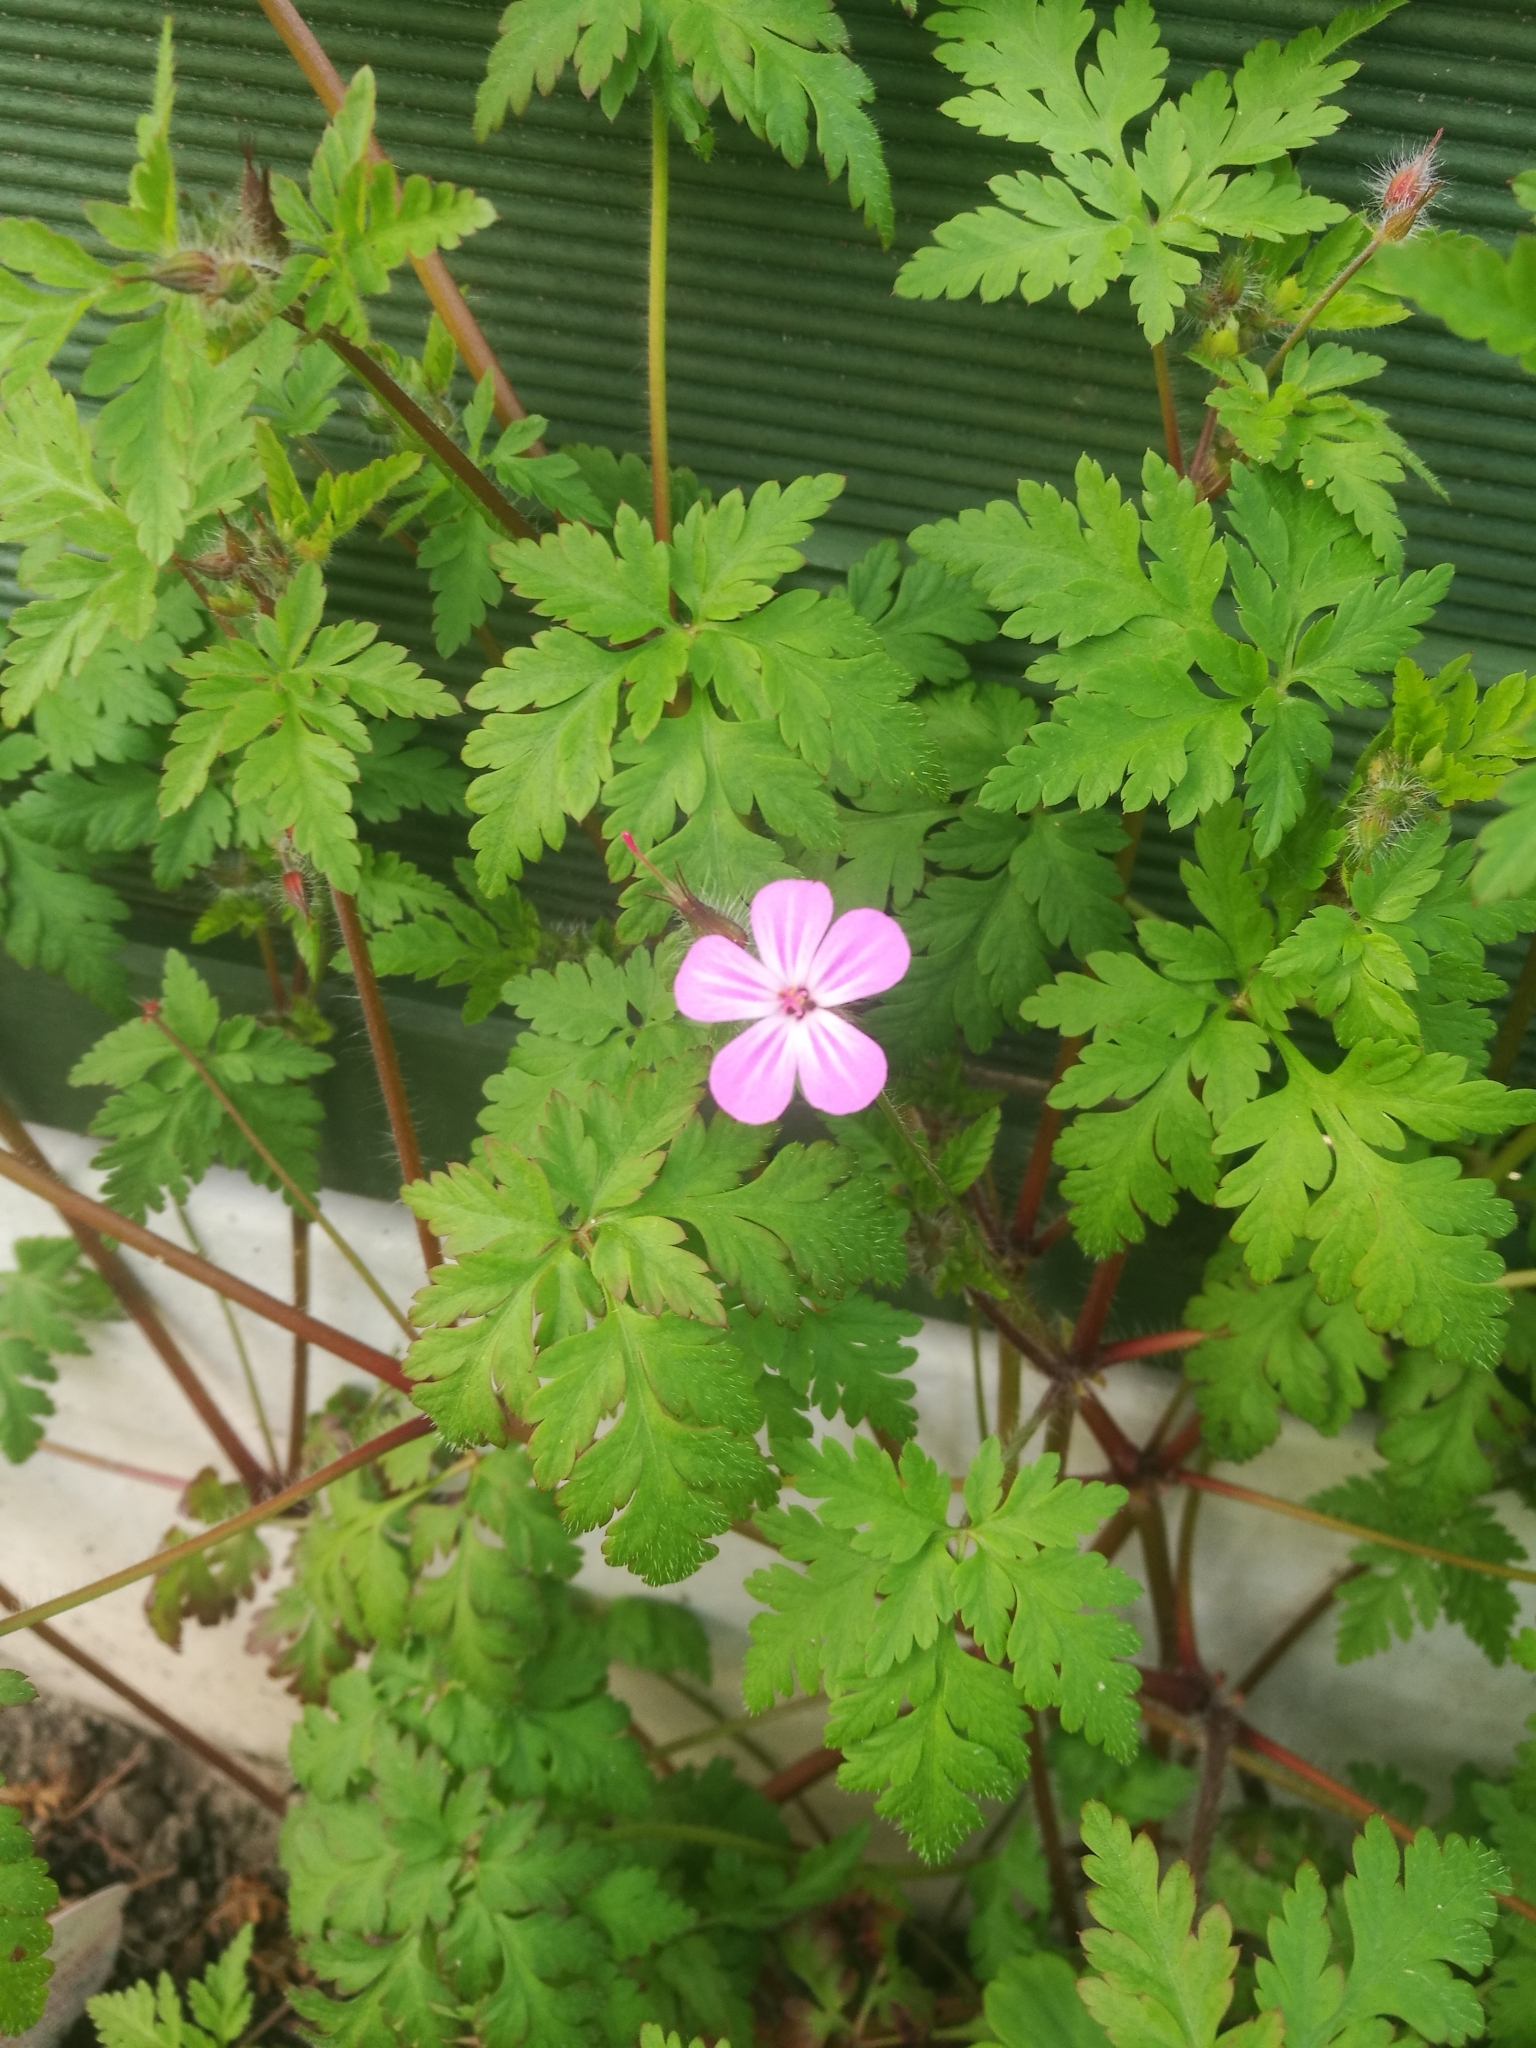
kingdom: Plantae
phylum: Tracheophyta
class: Magnoliopsida
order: Geraniales
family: Geraniaceae
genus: Geranium
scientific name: Geranium robertianum
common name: Herb-robert
